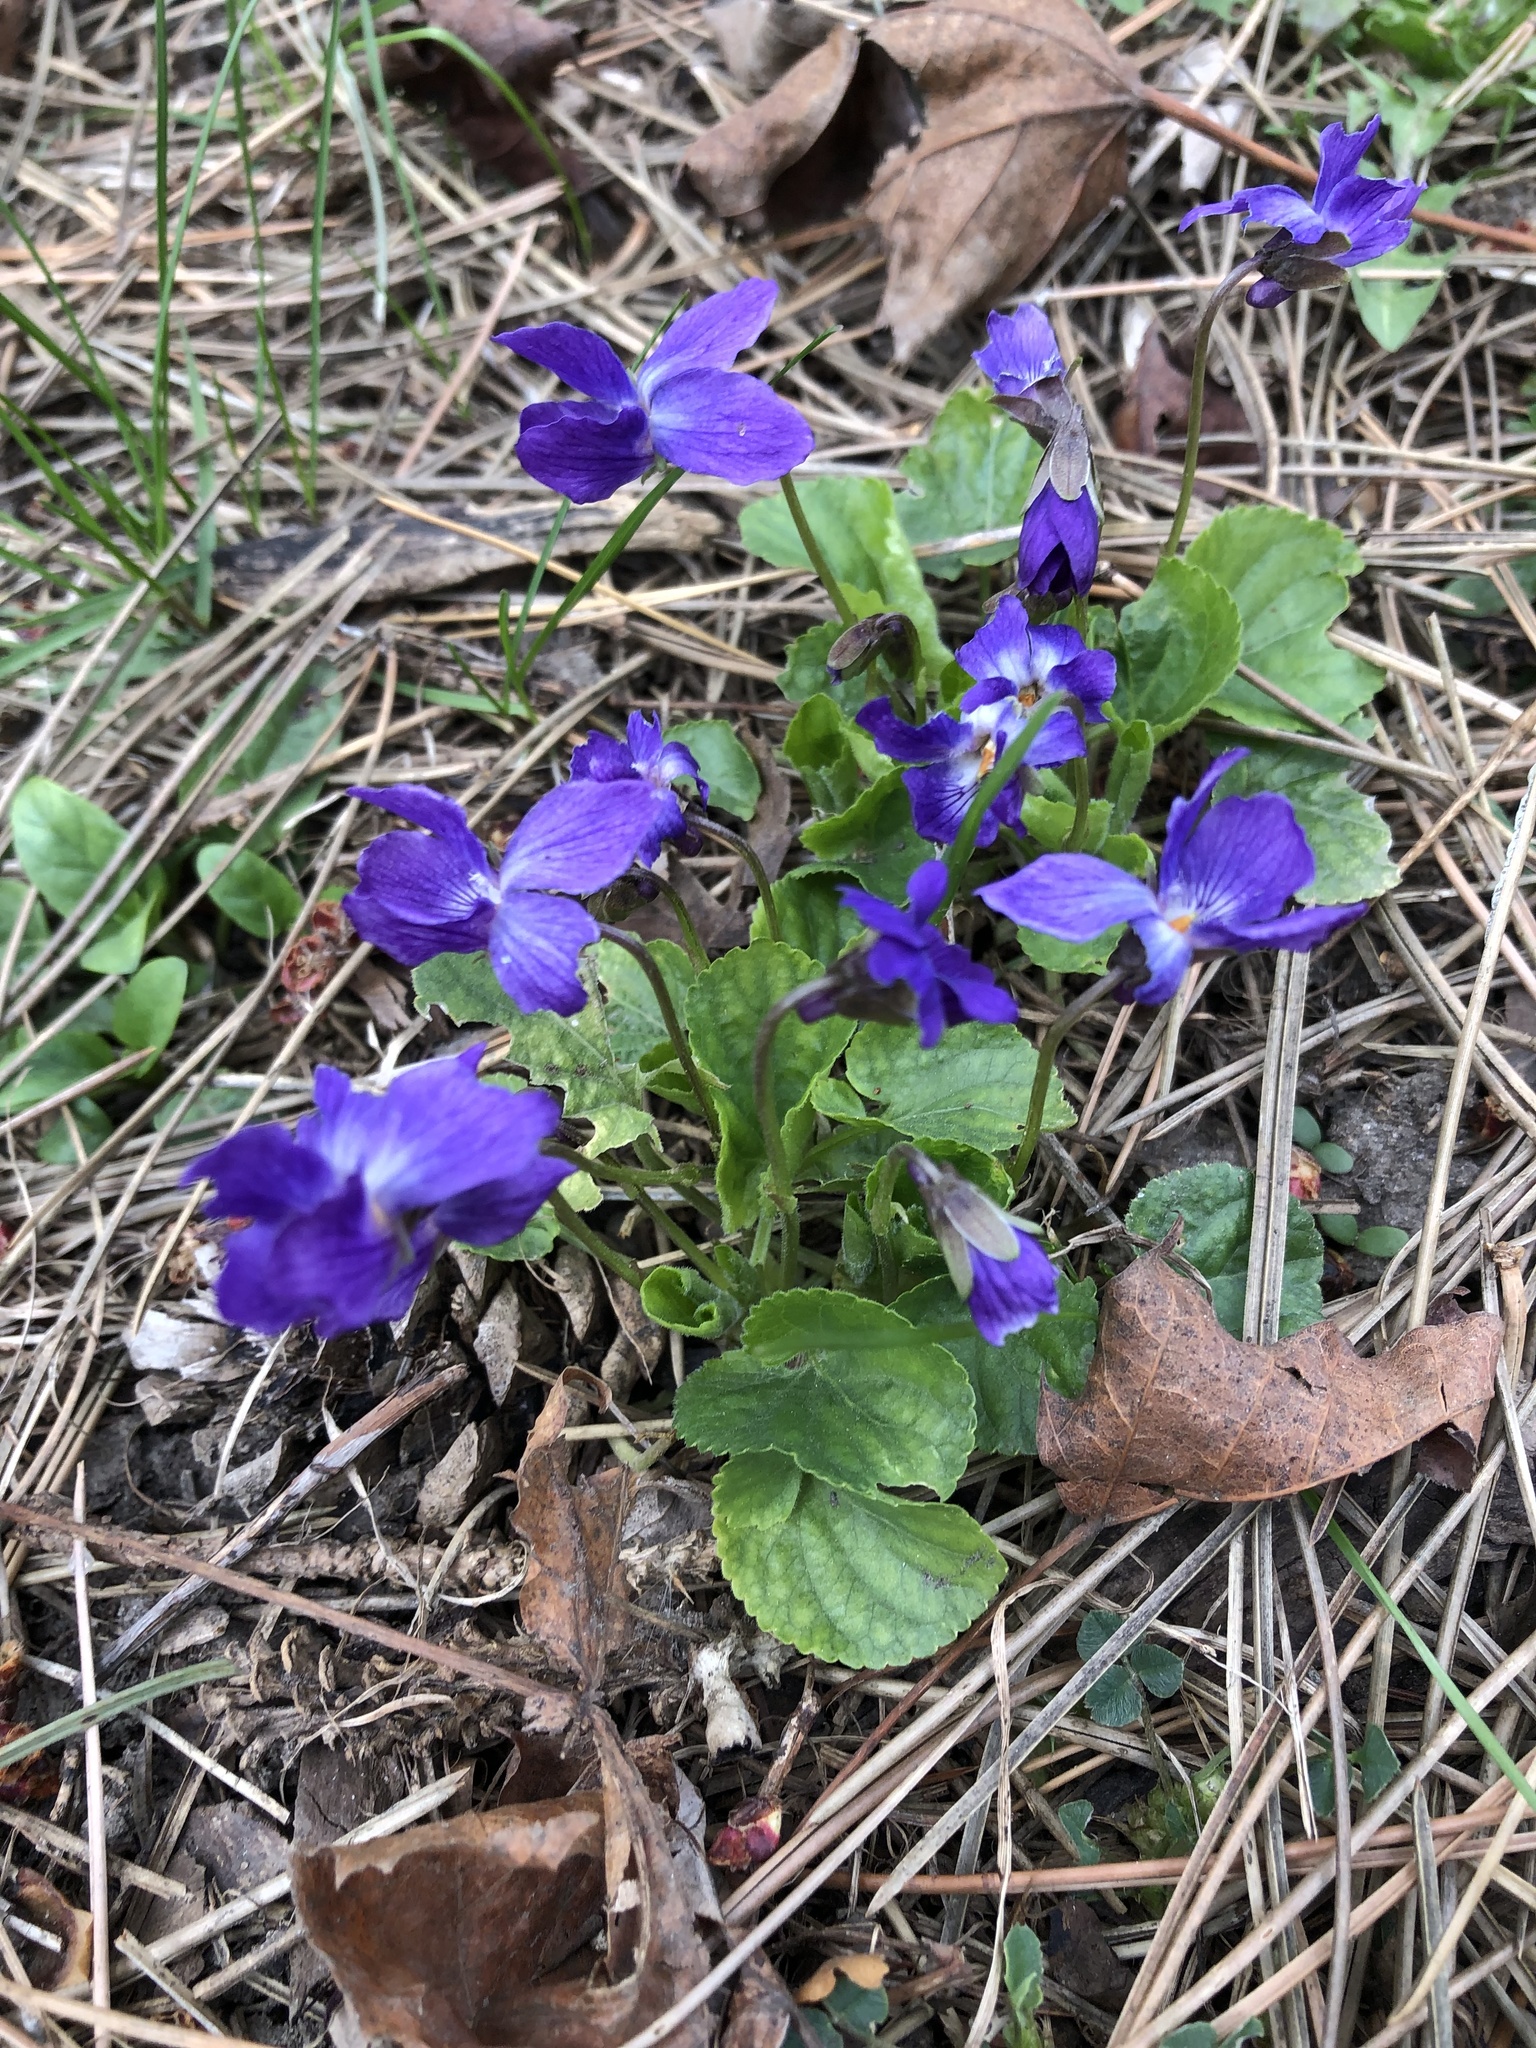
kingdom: Plantae
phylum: Tracheophyta
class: Magnoliopsida
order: Malpighiales
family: Violaceae
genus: Viola
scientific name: Viola sororia
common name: Dooryard violet
